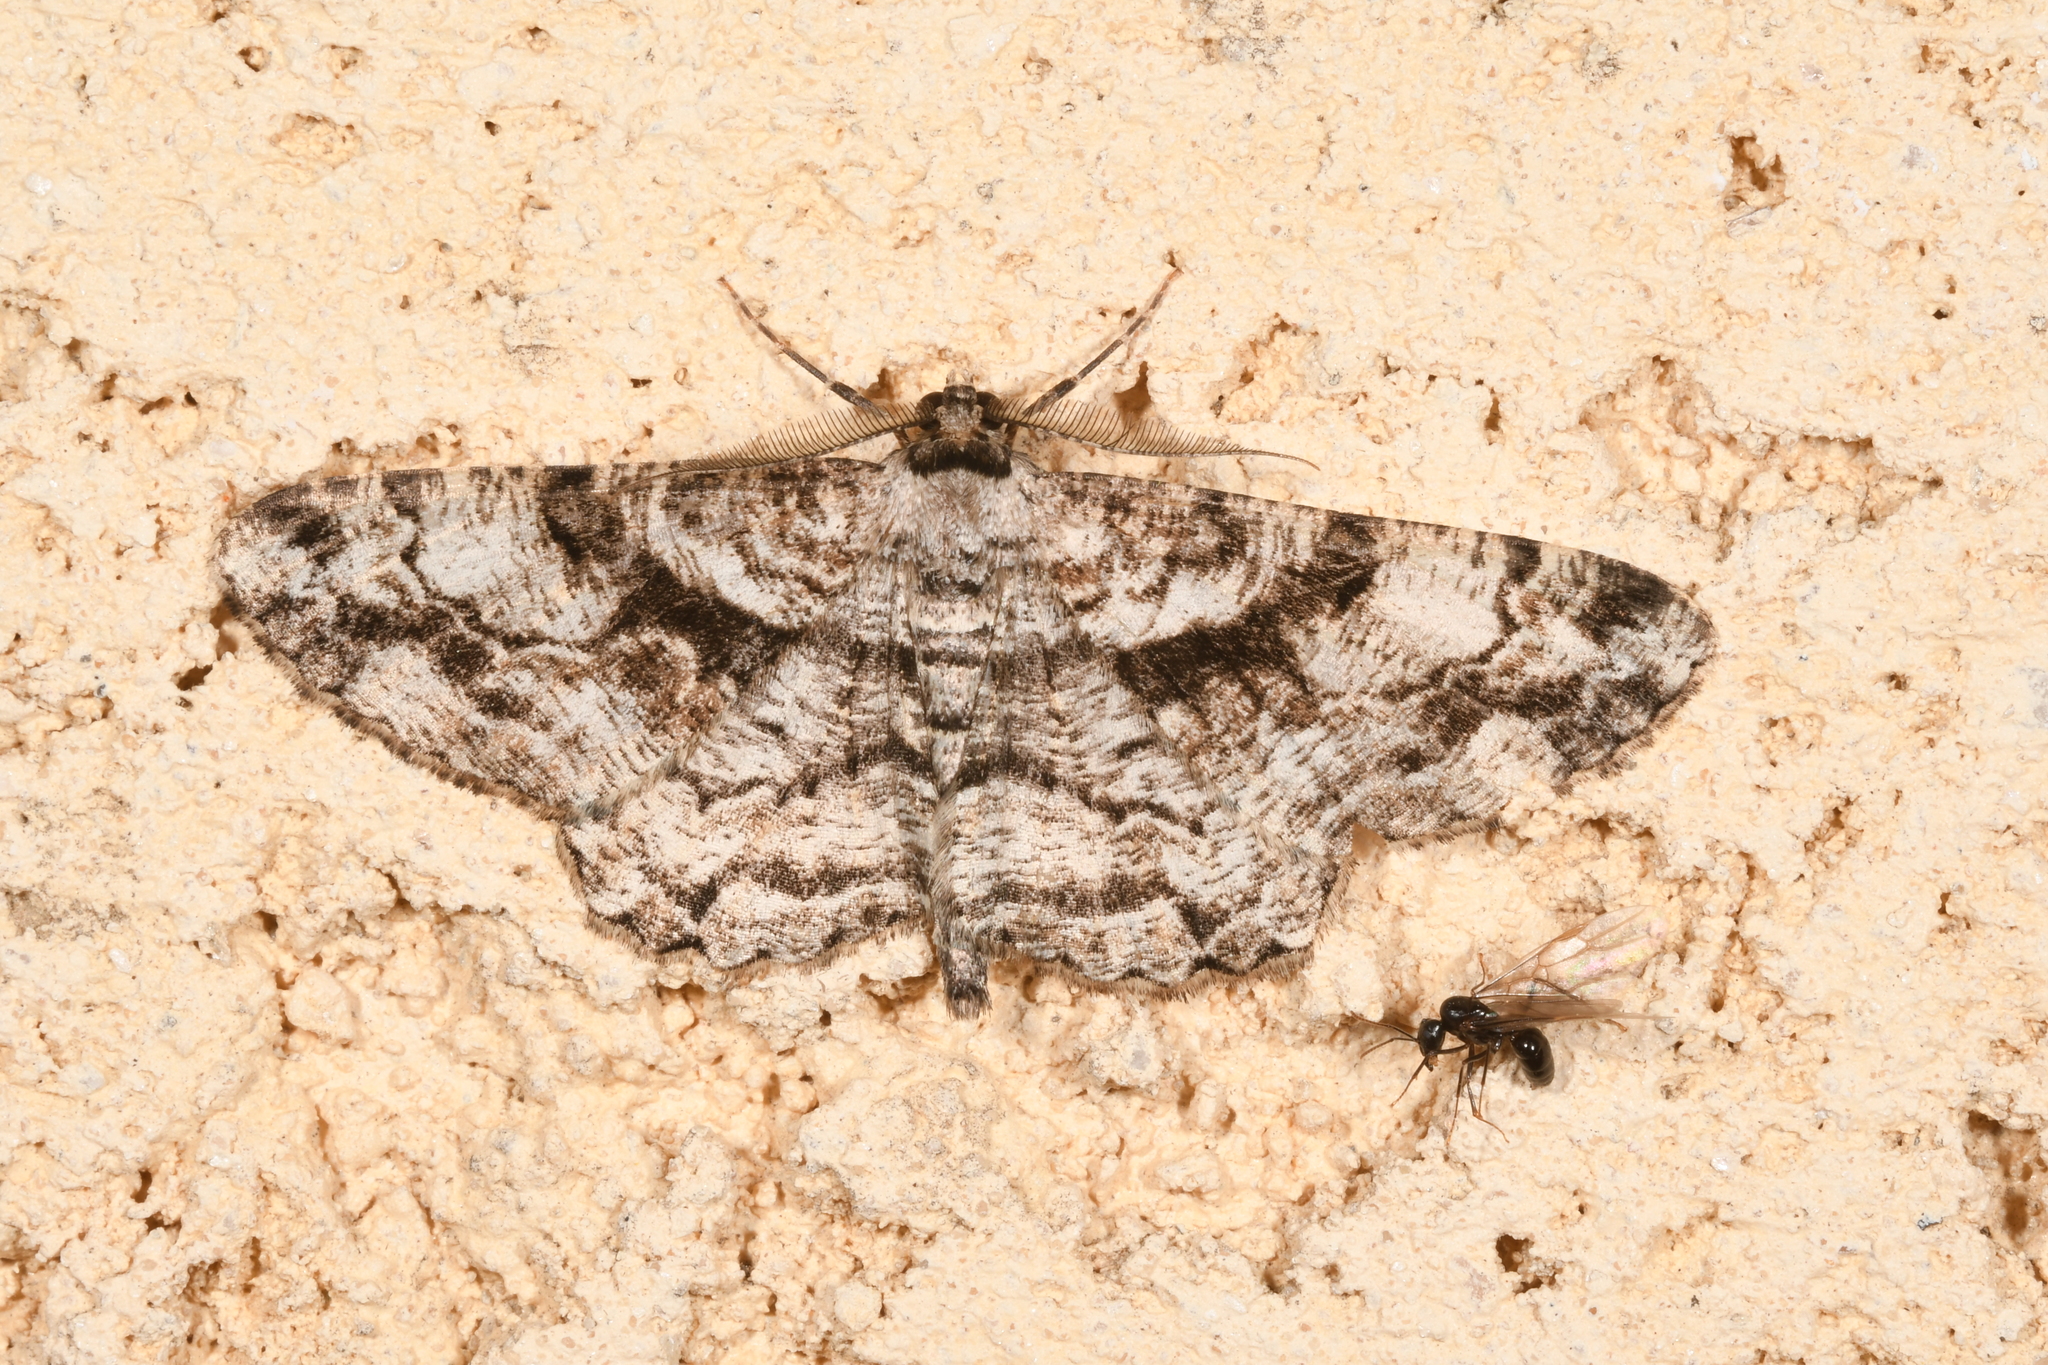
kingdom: Animalia
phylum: Arthropoda
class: Insecta
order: Lepidoptera
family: Geometridae
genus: Peribatodes
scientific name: Peribatodes umbraria
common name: Olive-tree beauty
